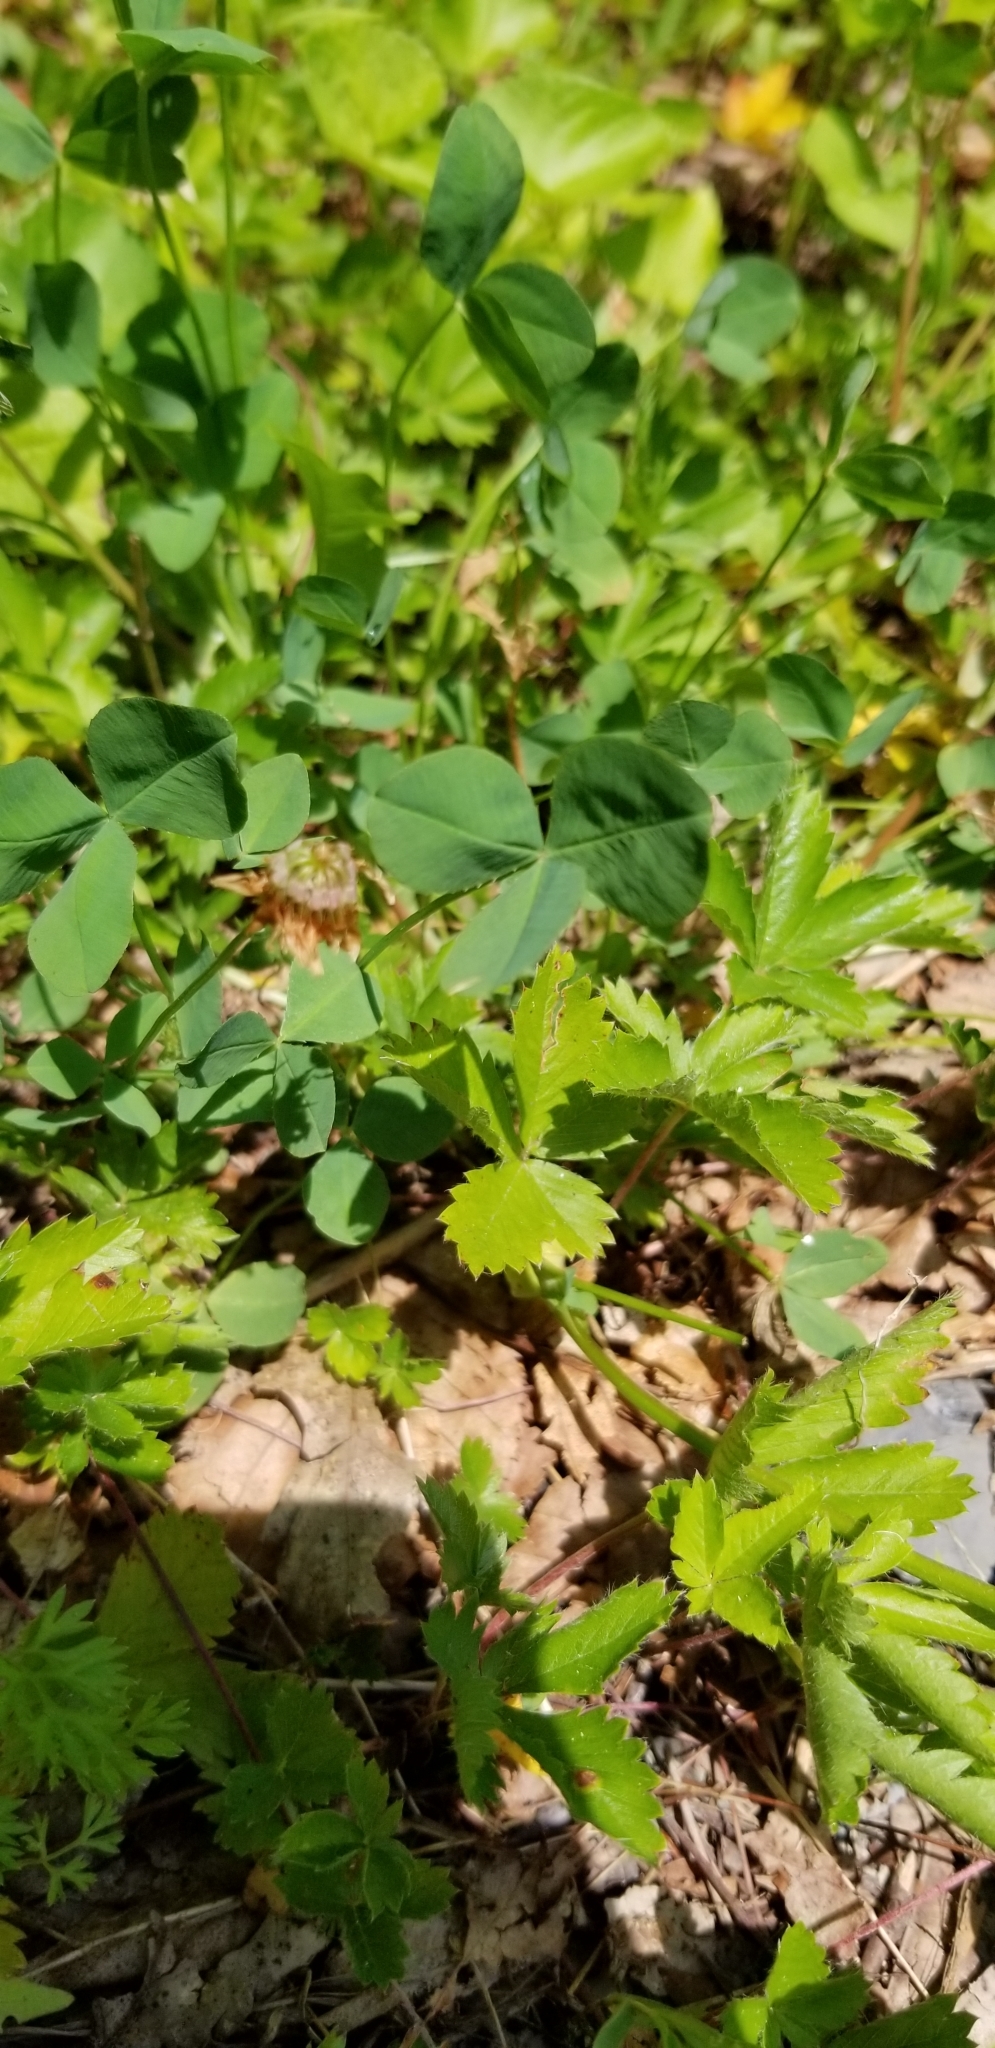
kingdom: Plantae
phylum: Tracheophyta
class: Magnoliopsida
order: Fabales
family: Fabaceae
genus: Trifolium
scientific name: Trifolium hybridum
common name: Alsike clover
